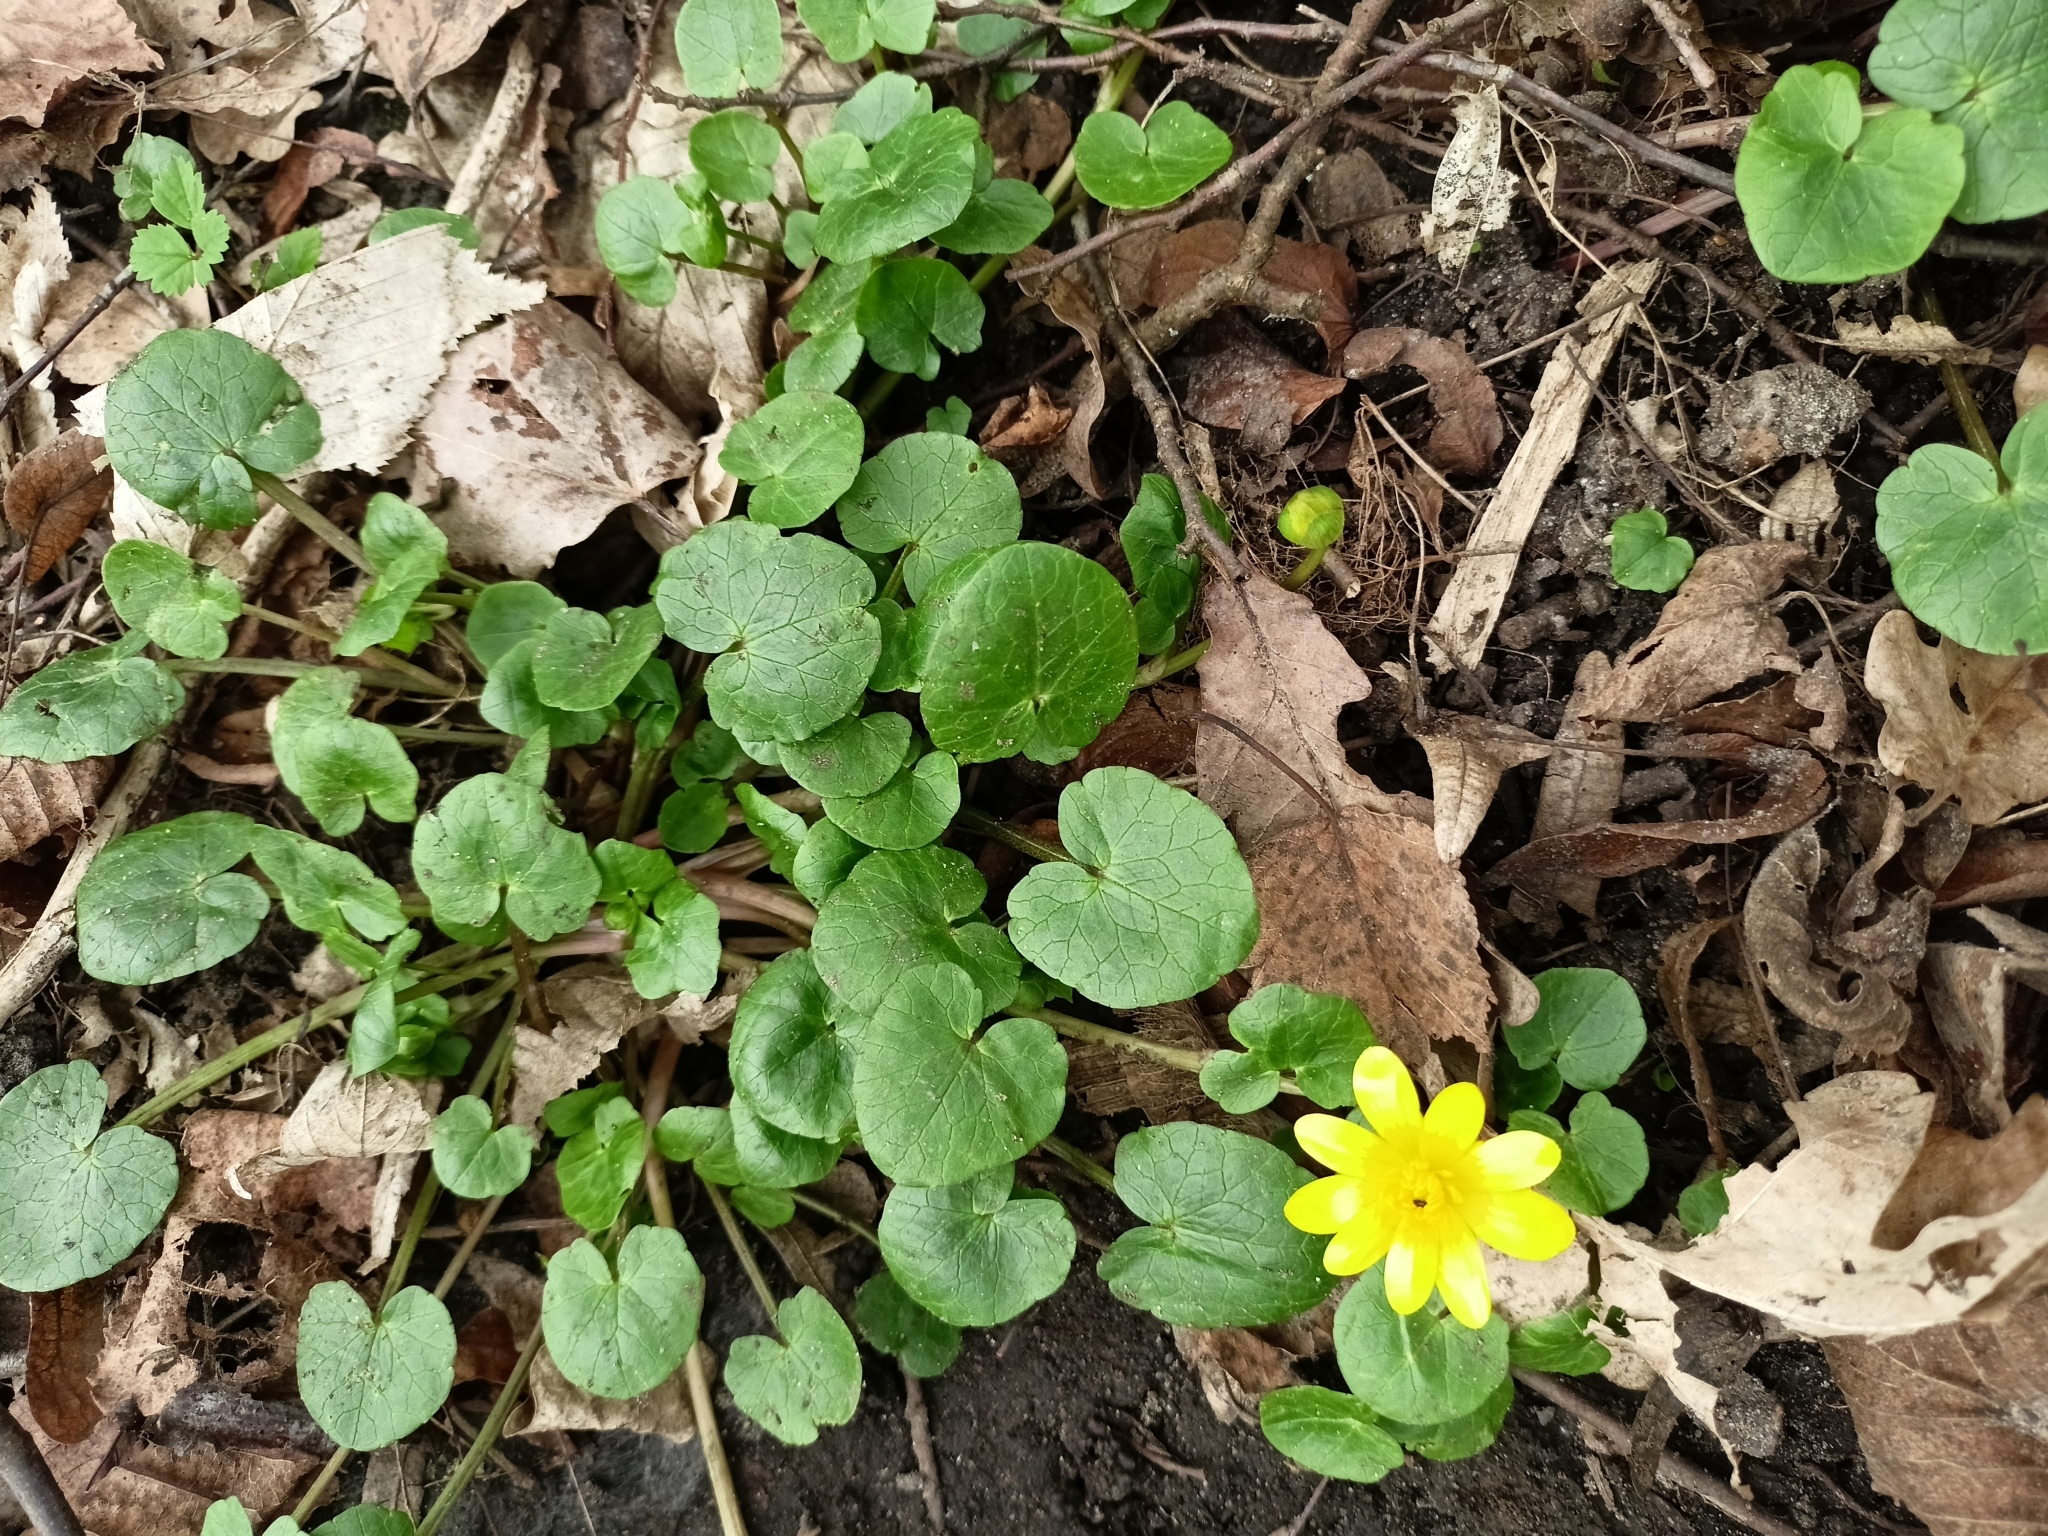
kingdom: Plantae
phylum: Tracheophyta
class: Magnoliopsida
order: Ranunculales
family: Ranunculaceae
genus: Ficaria
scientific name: Ficaria verna
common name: Lesser celandine
